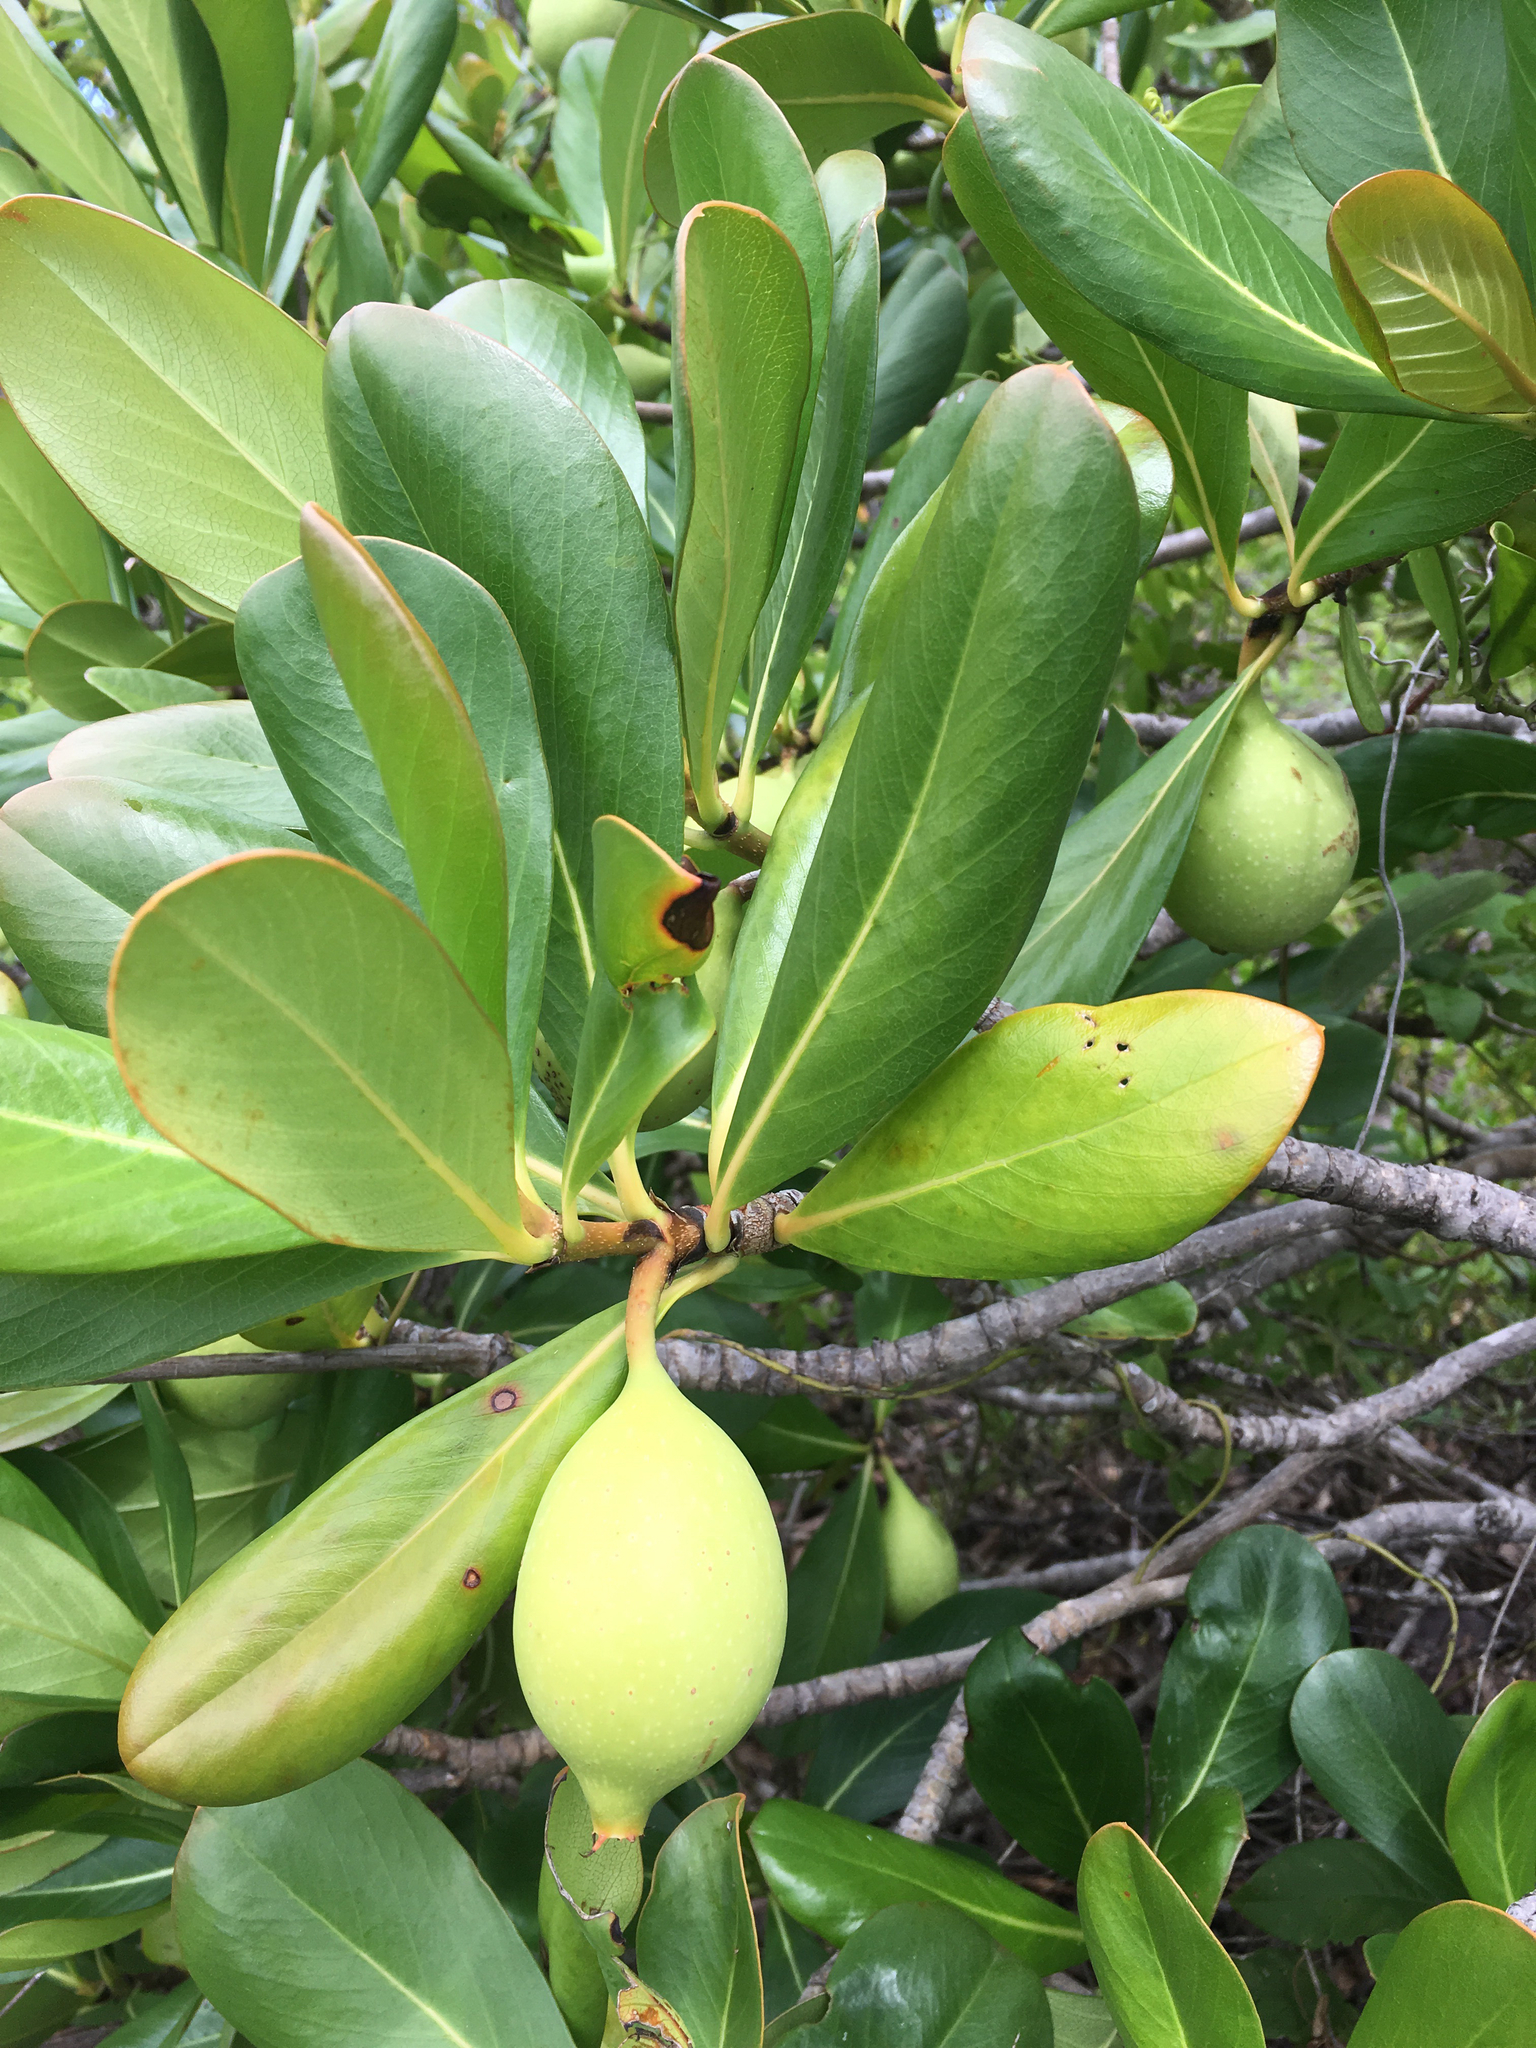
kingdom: Plantae
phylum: Tracheophyta
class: Magnoliopsida
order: Gentianales
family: Rubiaceae
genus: Casasia
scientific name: Casasia clusiifolia
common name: Seven-year apple
